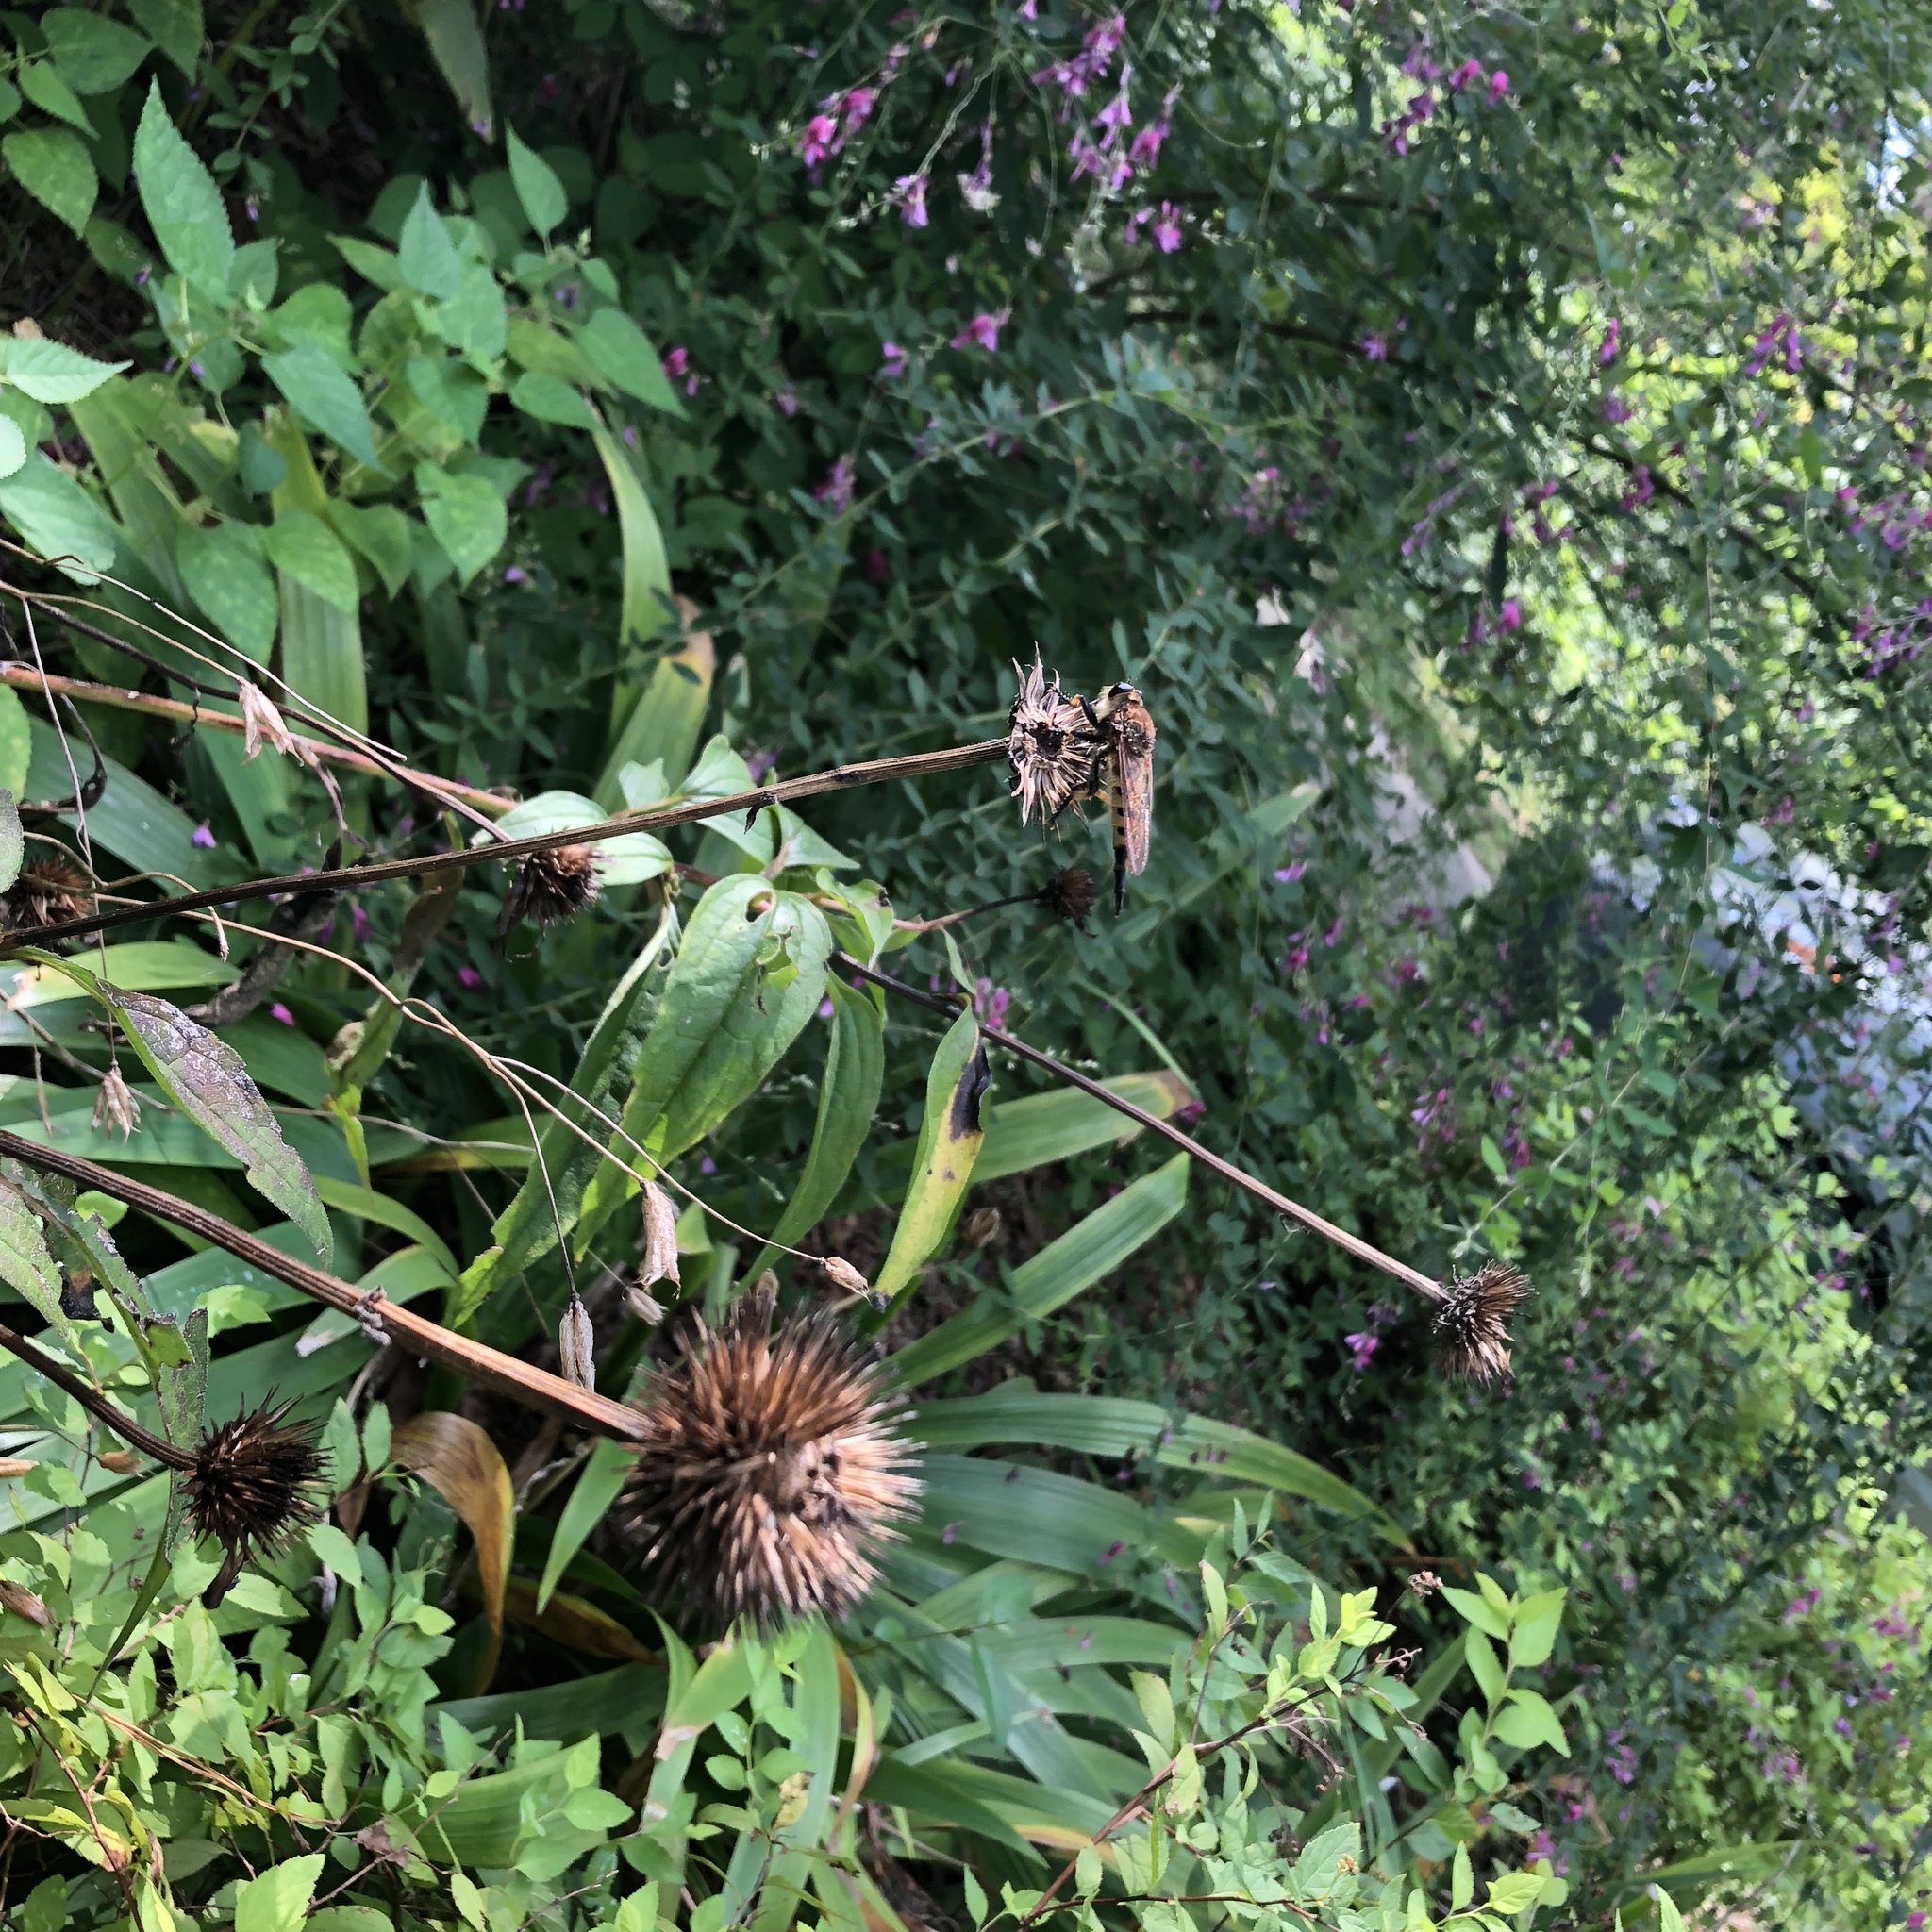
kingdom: Animalia
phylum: Arthropoda
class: Insecta
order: Diptera
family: Asilidae
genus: Promachus
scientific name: Promachus rufipes
